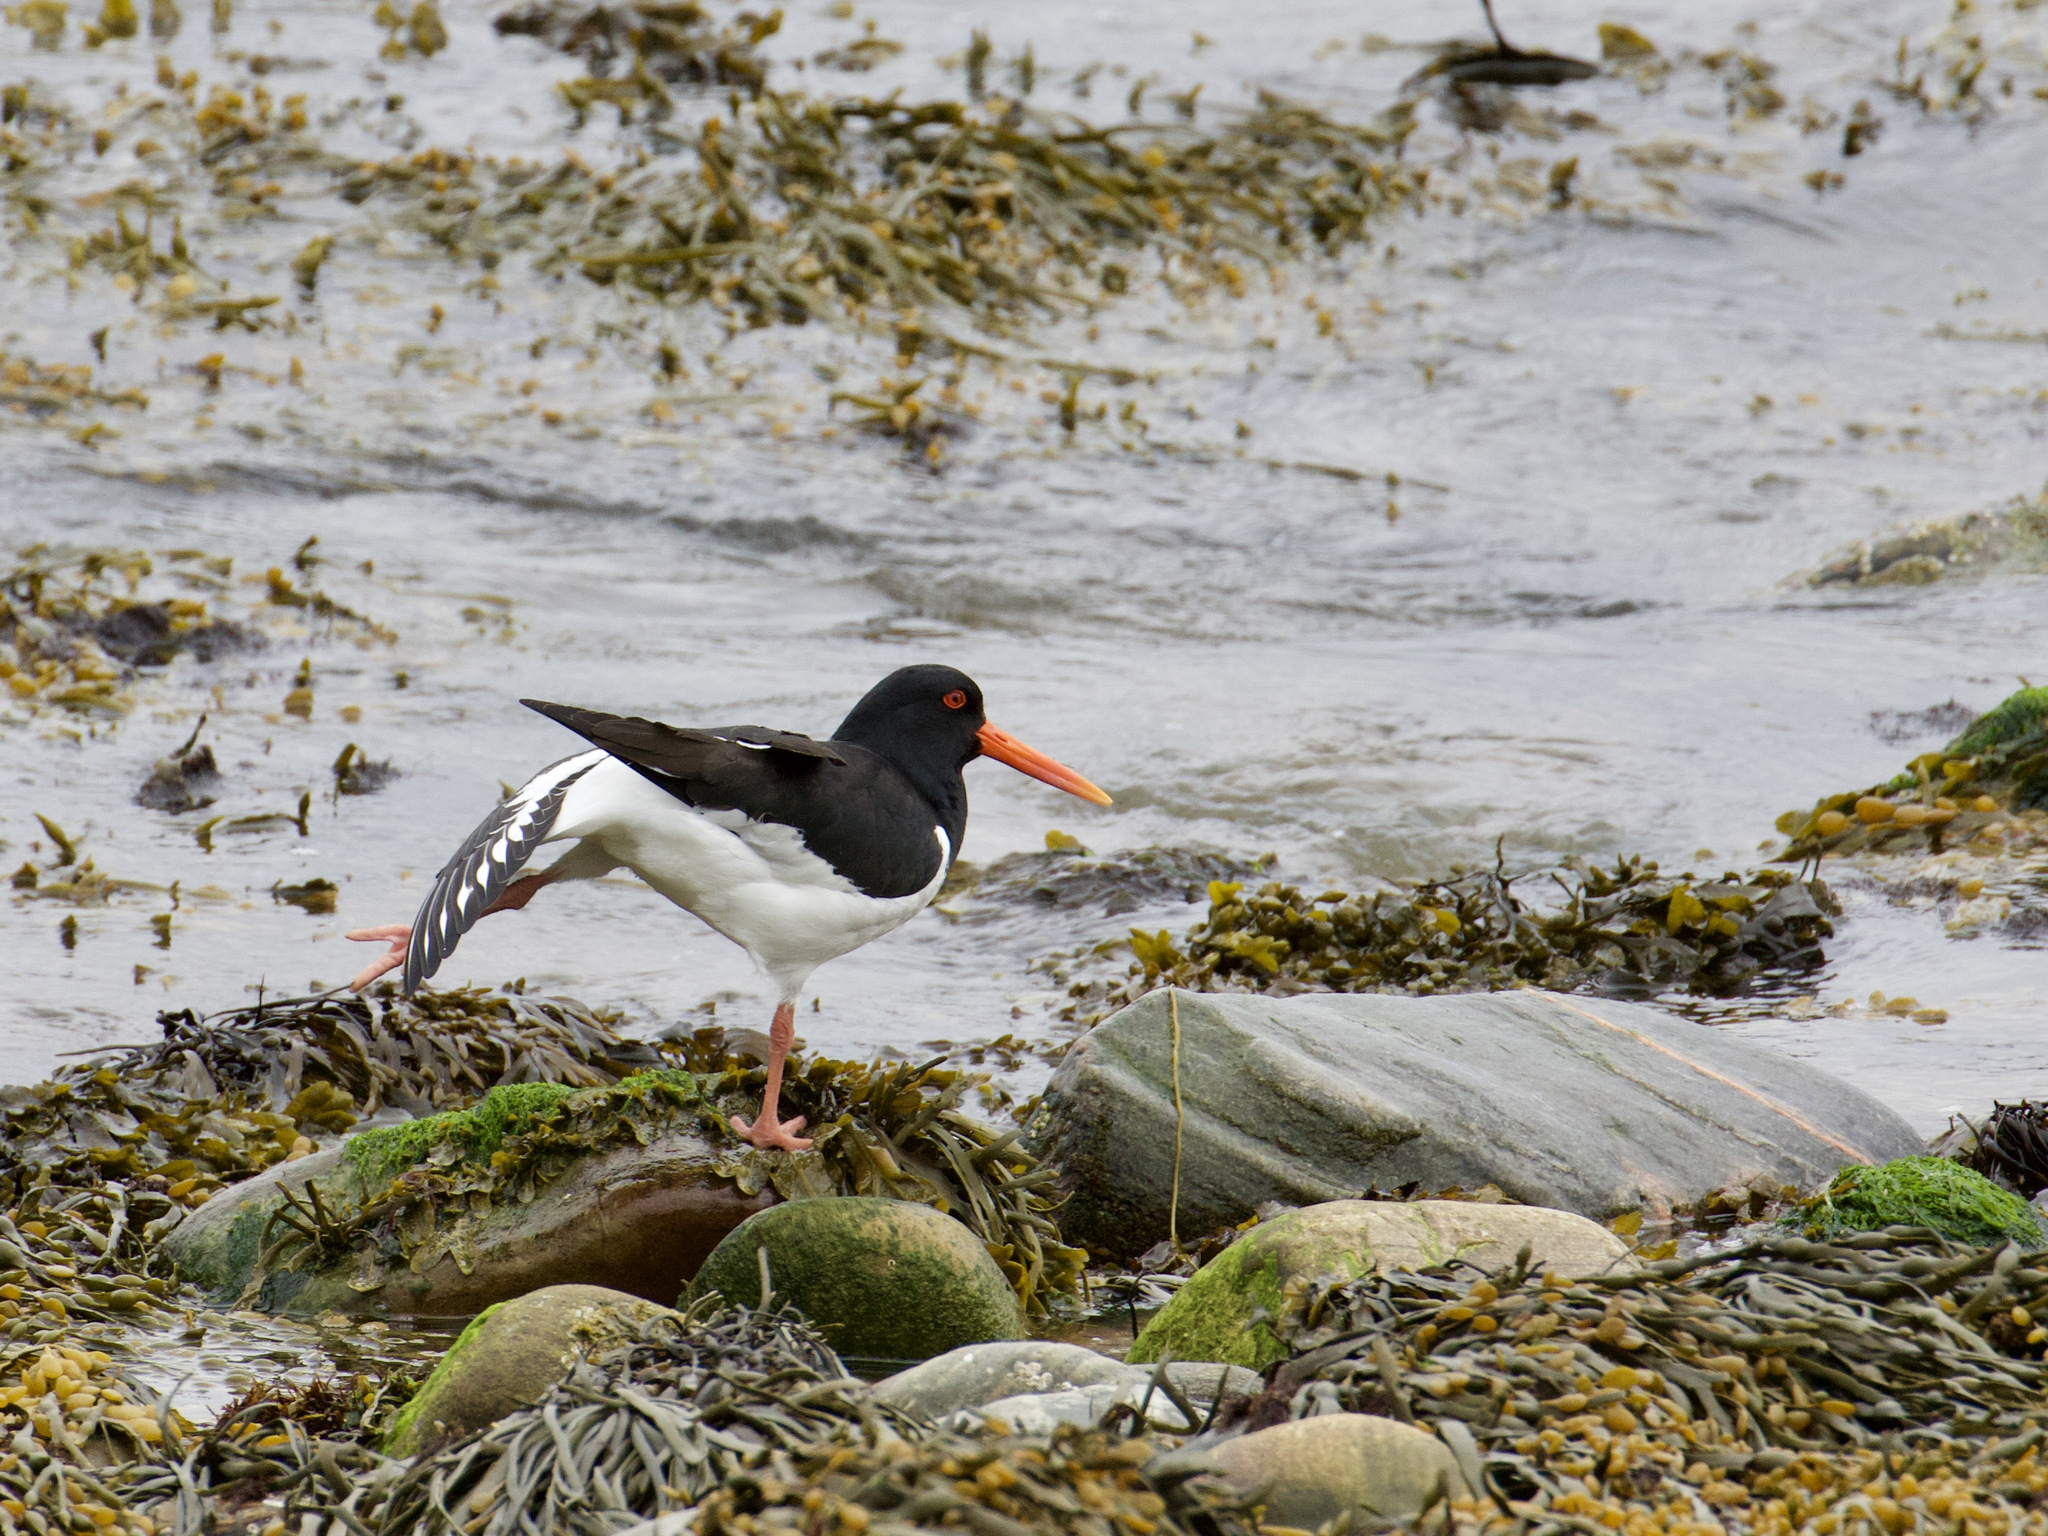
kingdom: Animalia
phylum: Chordata
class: Aves
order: Charadriiformes
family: Haematopodidae
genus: Haematopus
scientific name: Haematopus ostralegus
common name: Eurasian oystercatcher
